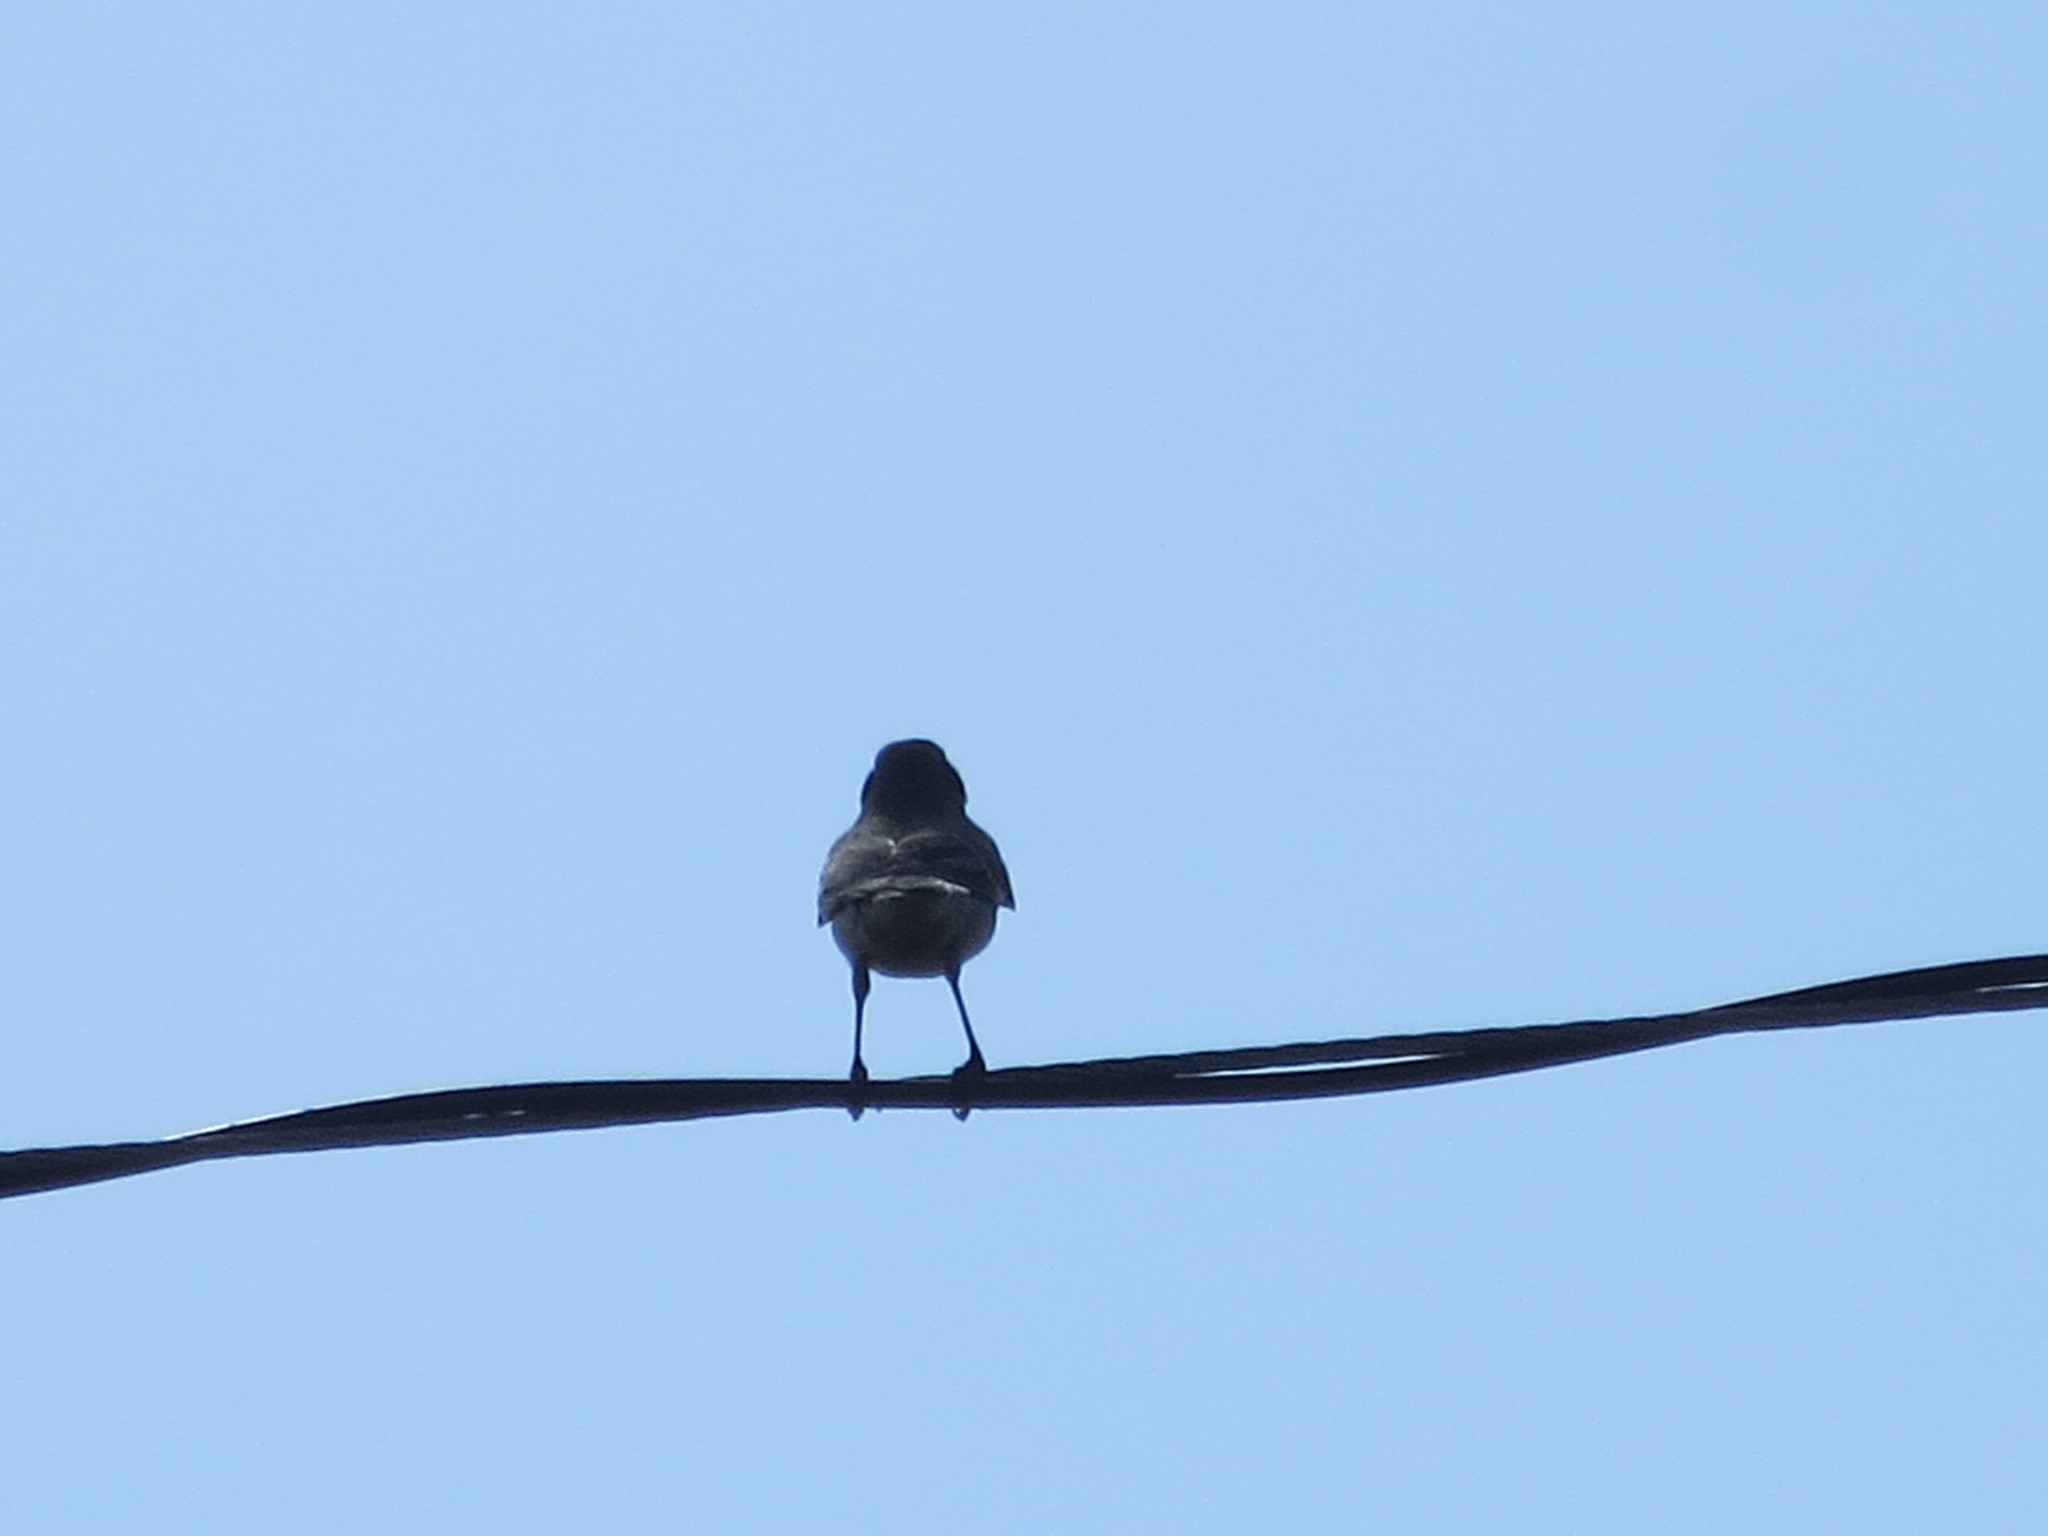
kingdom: Animalia
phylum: Chordata
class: Aves
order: Passeriformes
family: Mimidae
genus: Mimus
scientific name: Mimus polyglottos
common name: Northern mockingbird
